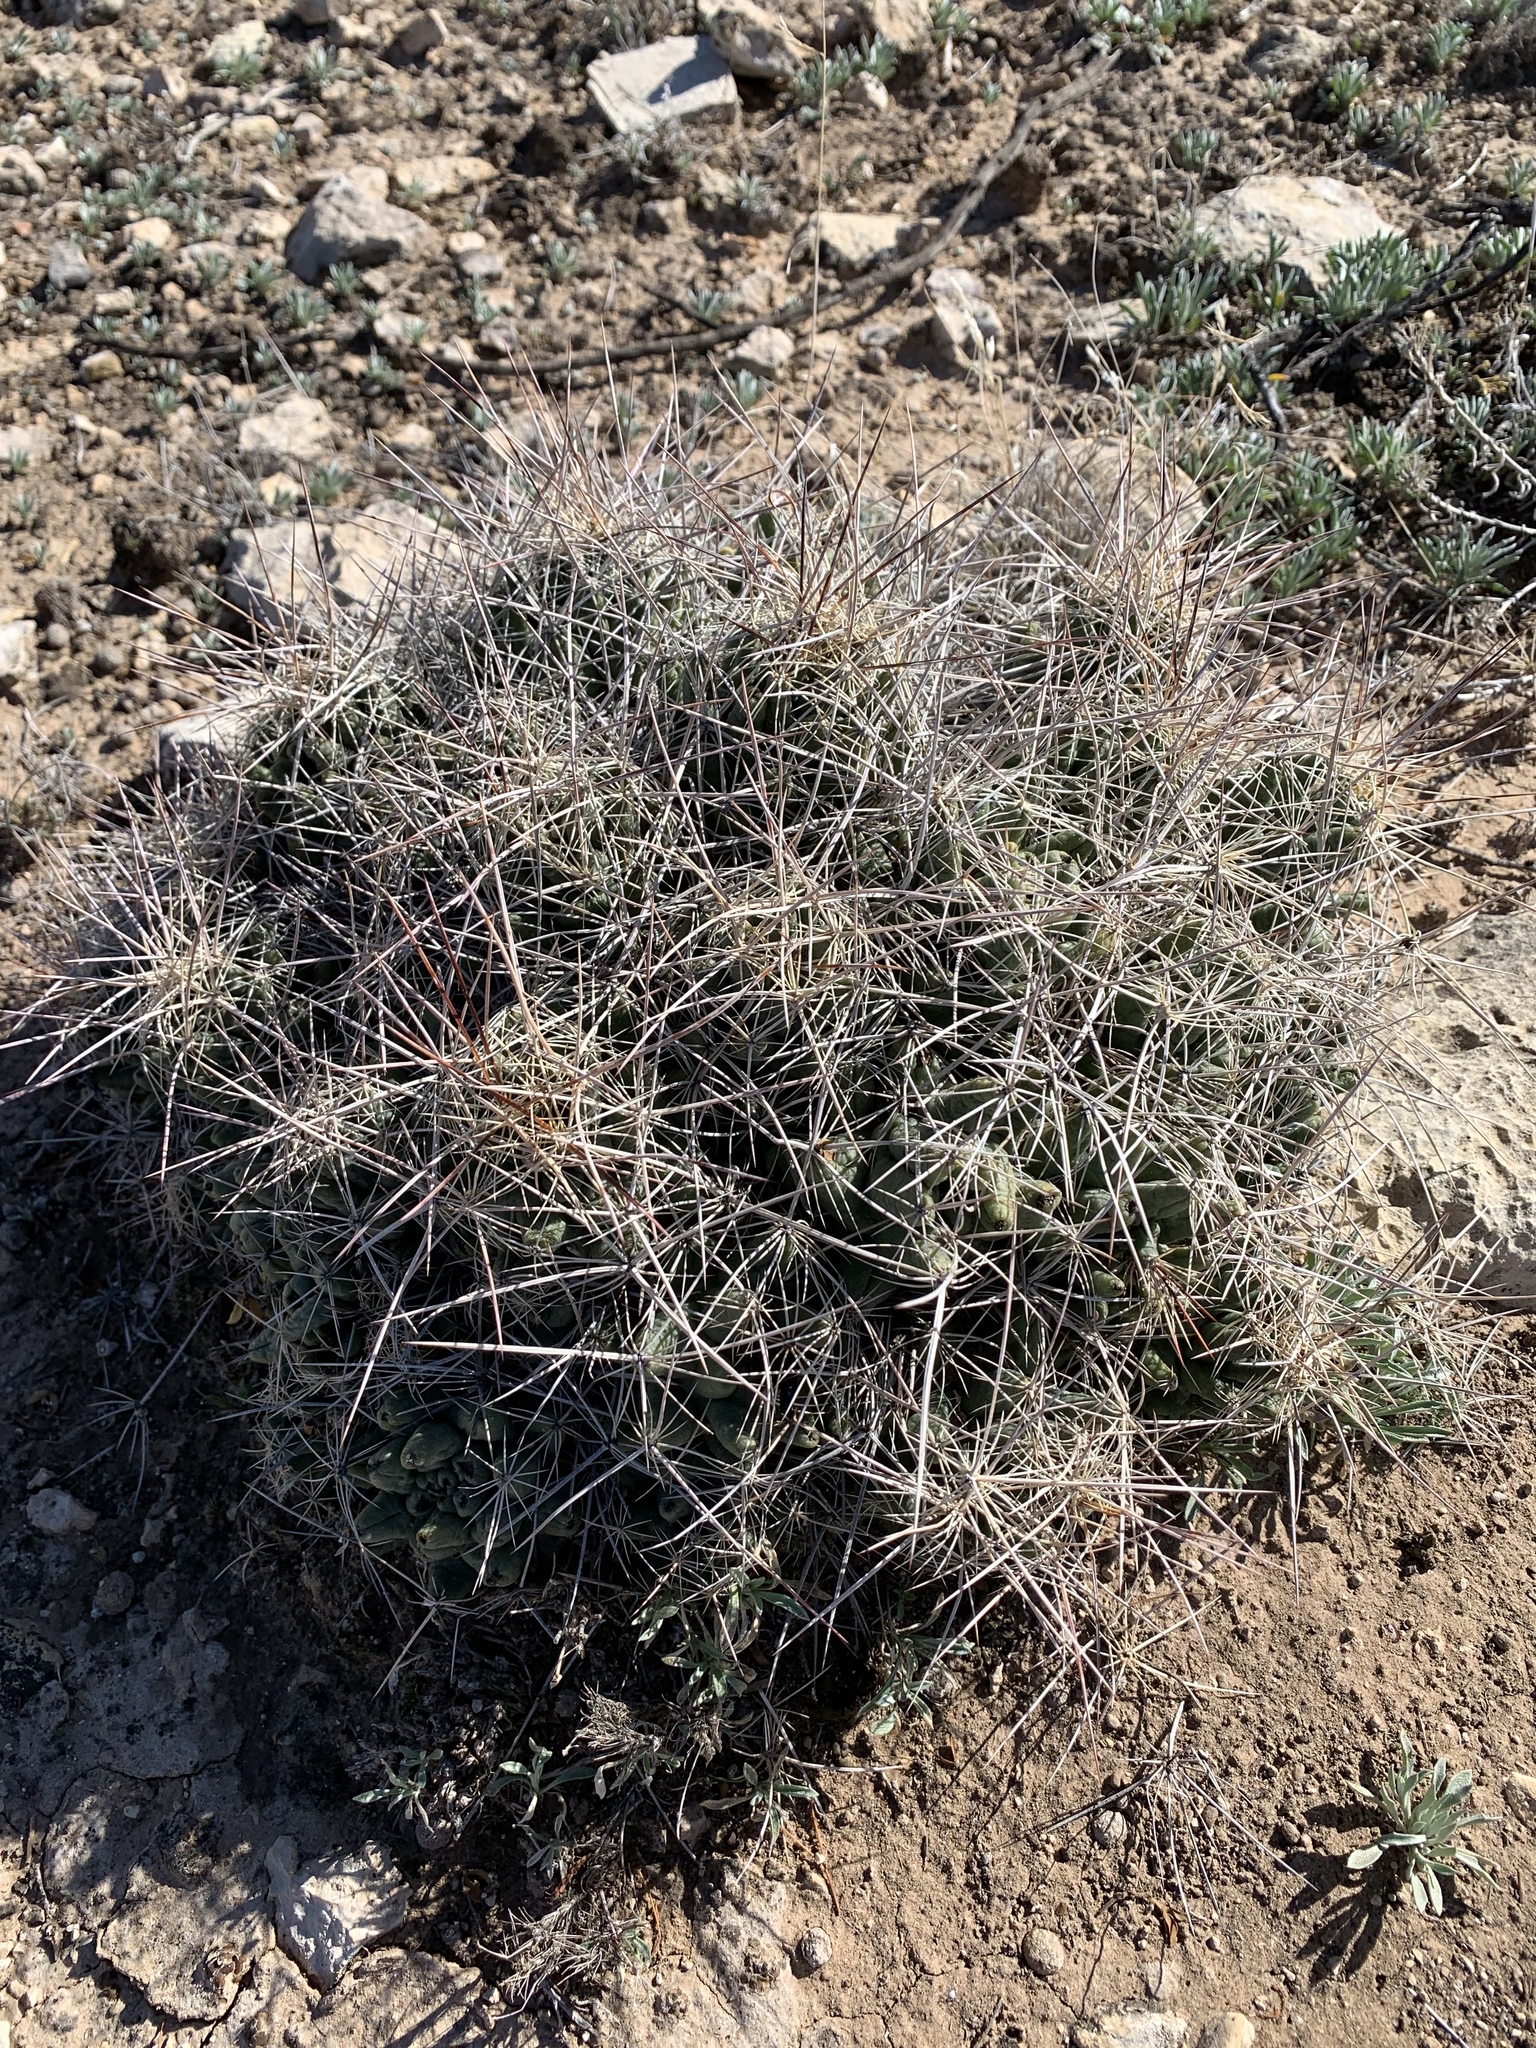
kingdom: Plantae
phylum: Tracheophyta
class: Magnoliopsida
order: Caryophyllales
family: Cactaceae
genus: Coryphantha
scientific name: Coryphantha macromeris
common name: Nipple beehive cactus
